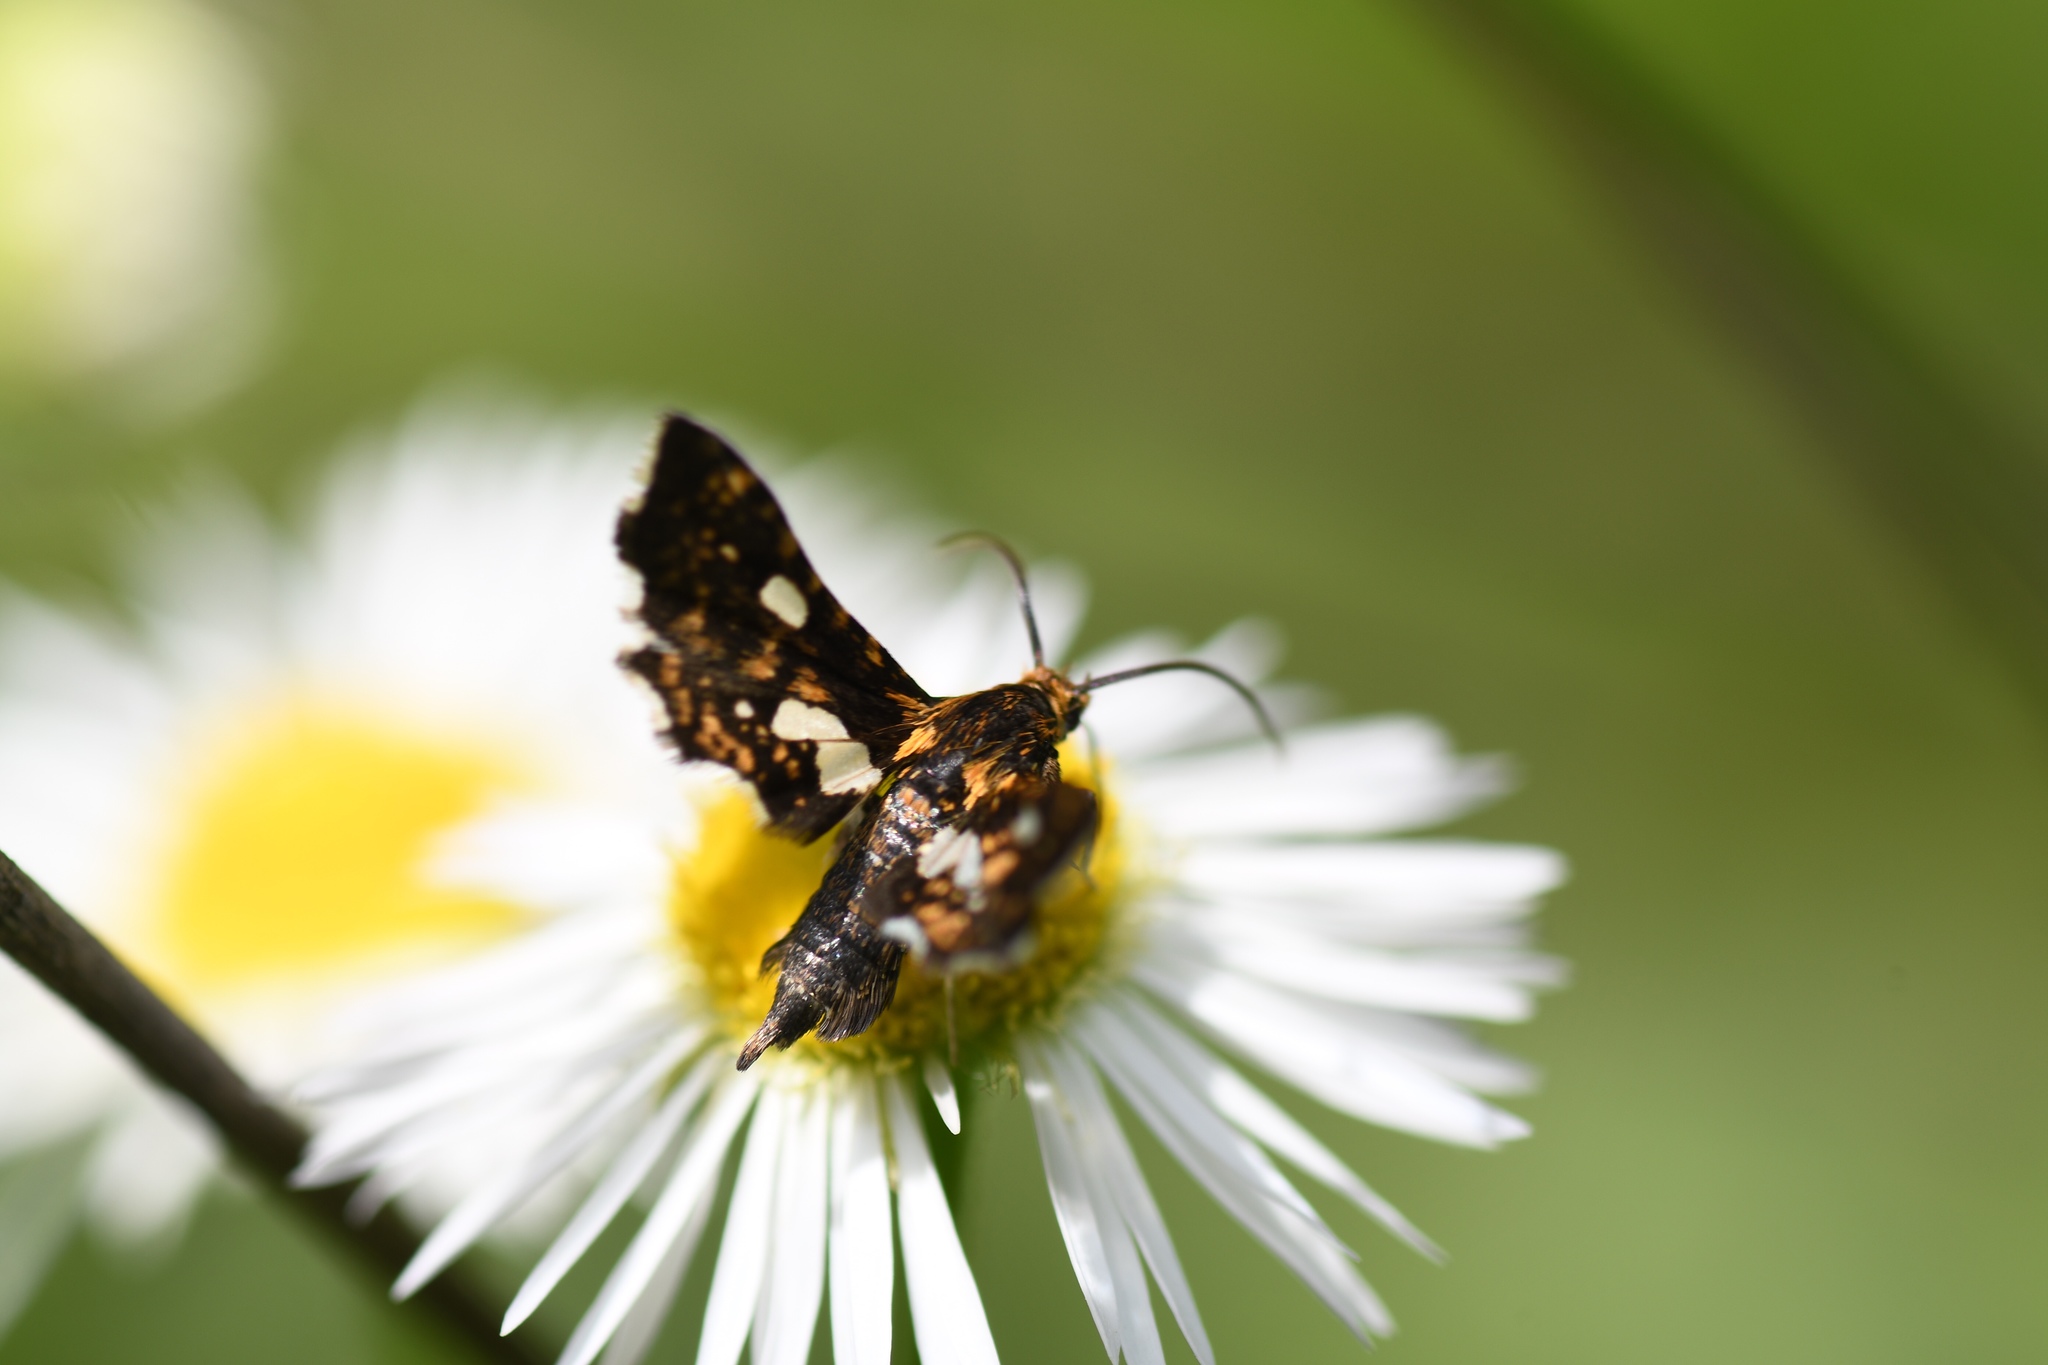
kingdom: Animalia
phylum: Arthropoda
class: Insecta
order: Lepidoptera
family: Thyrididae
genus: Thyris
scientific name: Thyris maculata
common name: Spotted thyris moth
